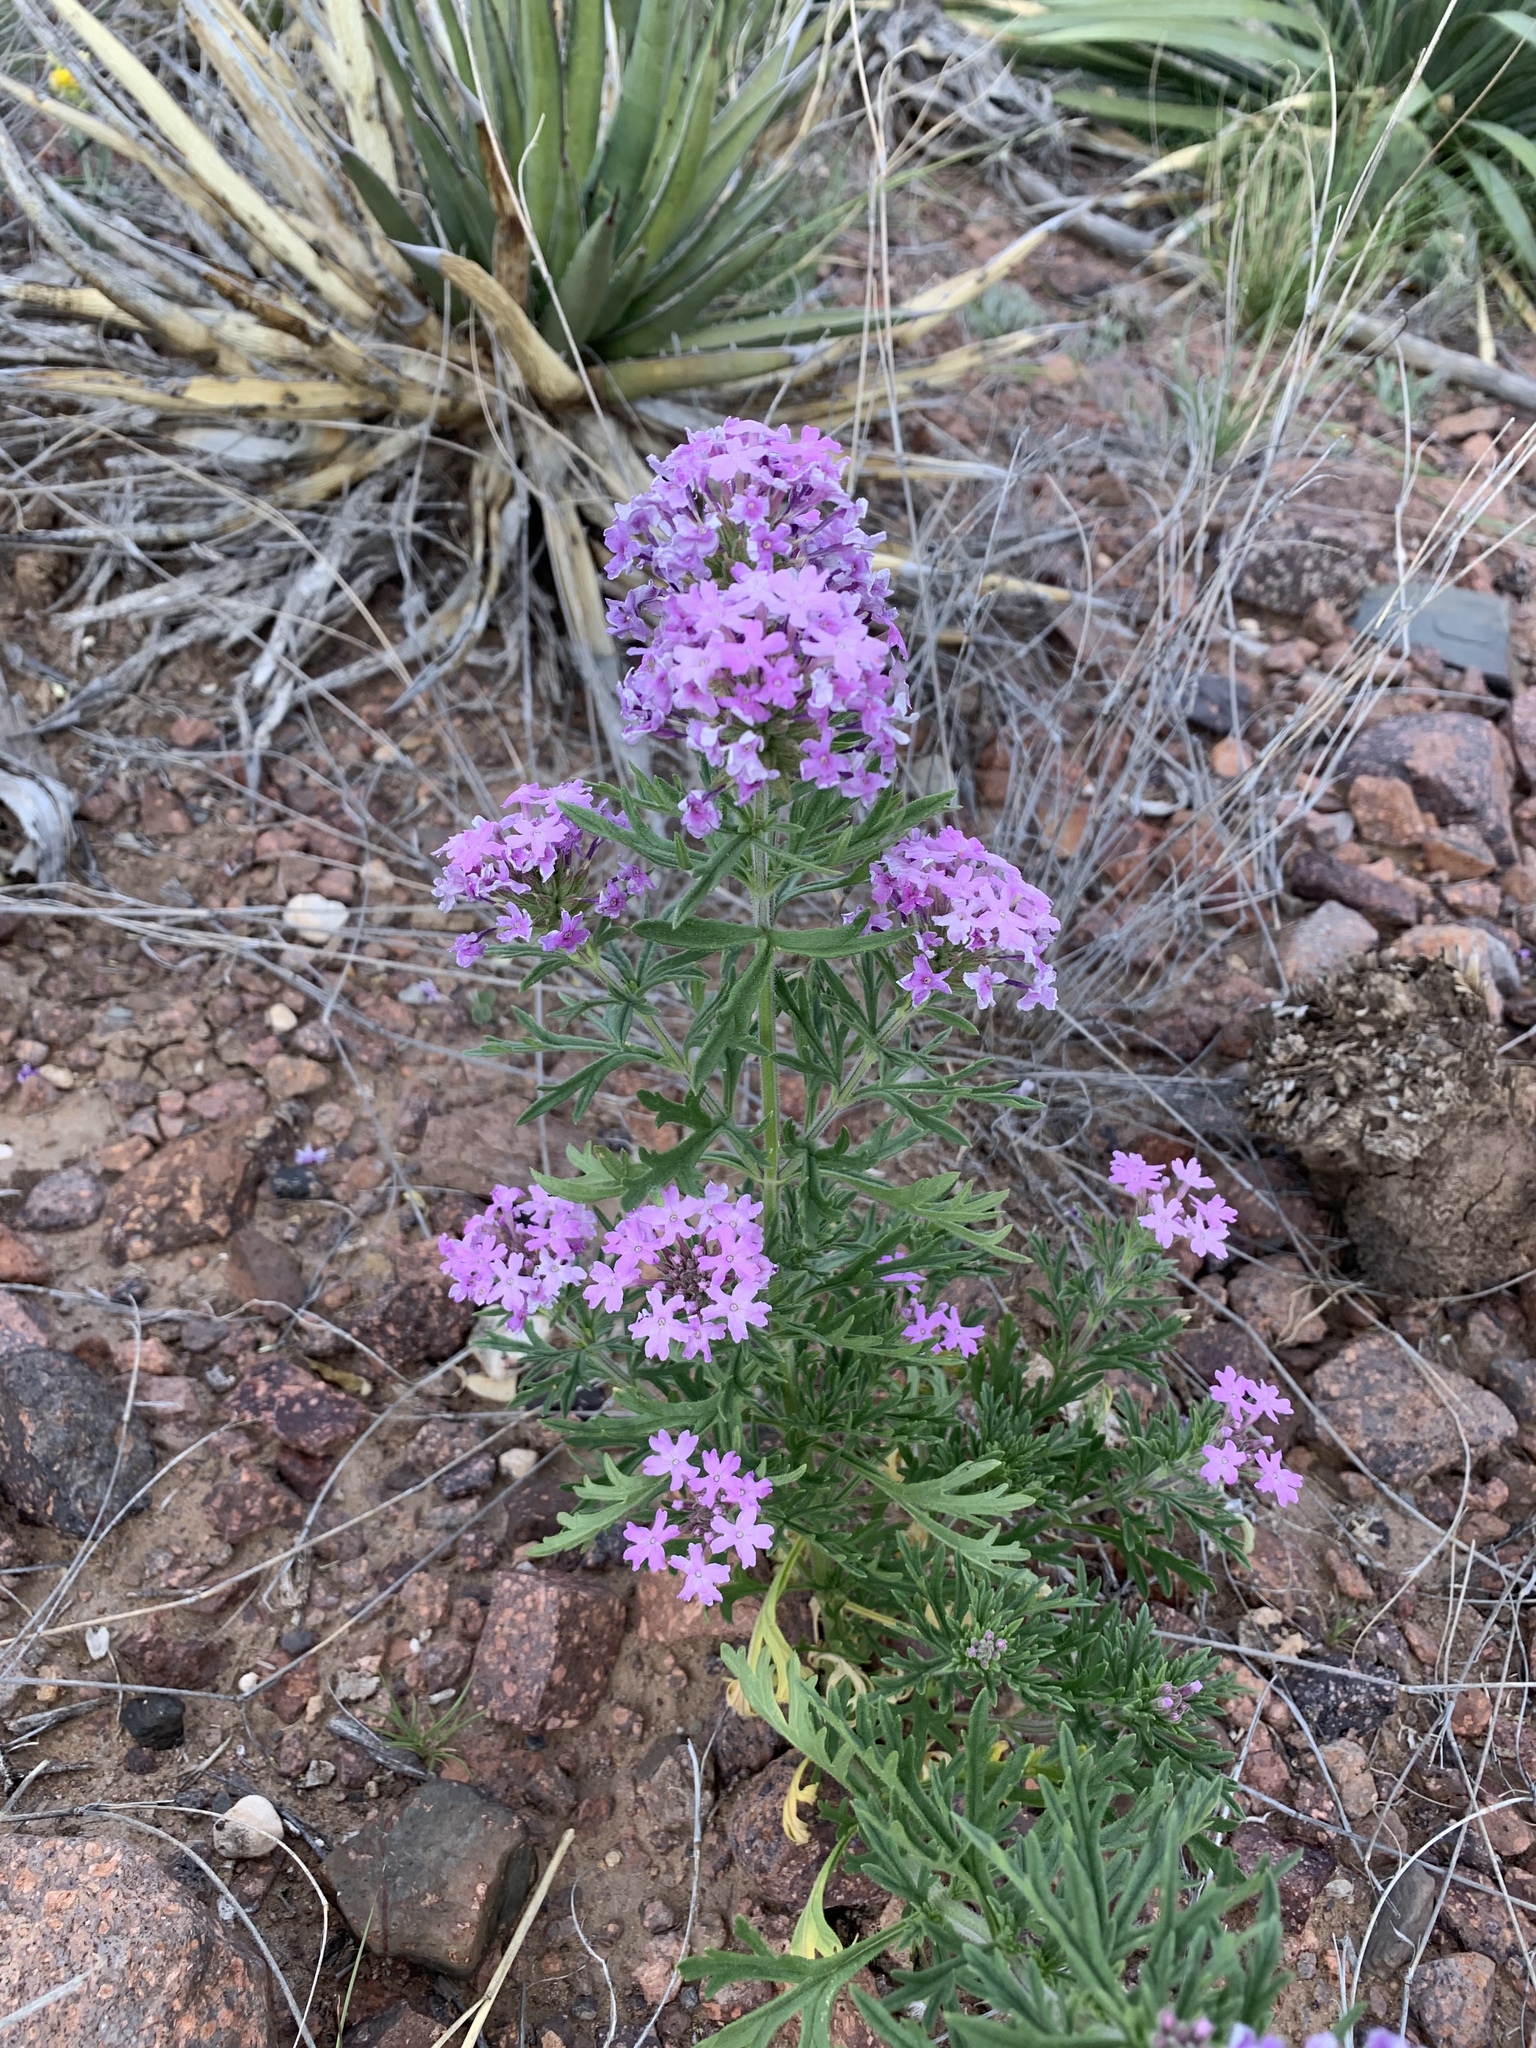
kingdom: Plantae
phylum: Tracheophyta
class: Magnoliopsida
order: Lamiales
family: Verbenaceae
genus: Verbena
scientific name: Verbena bipinnatifida
